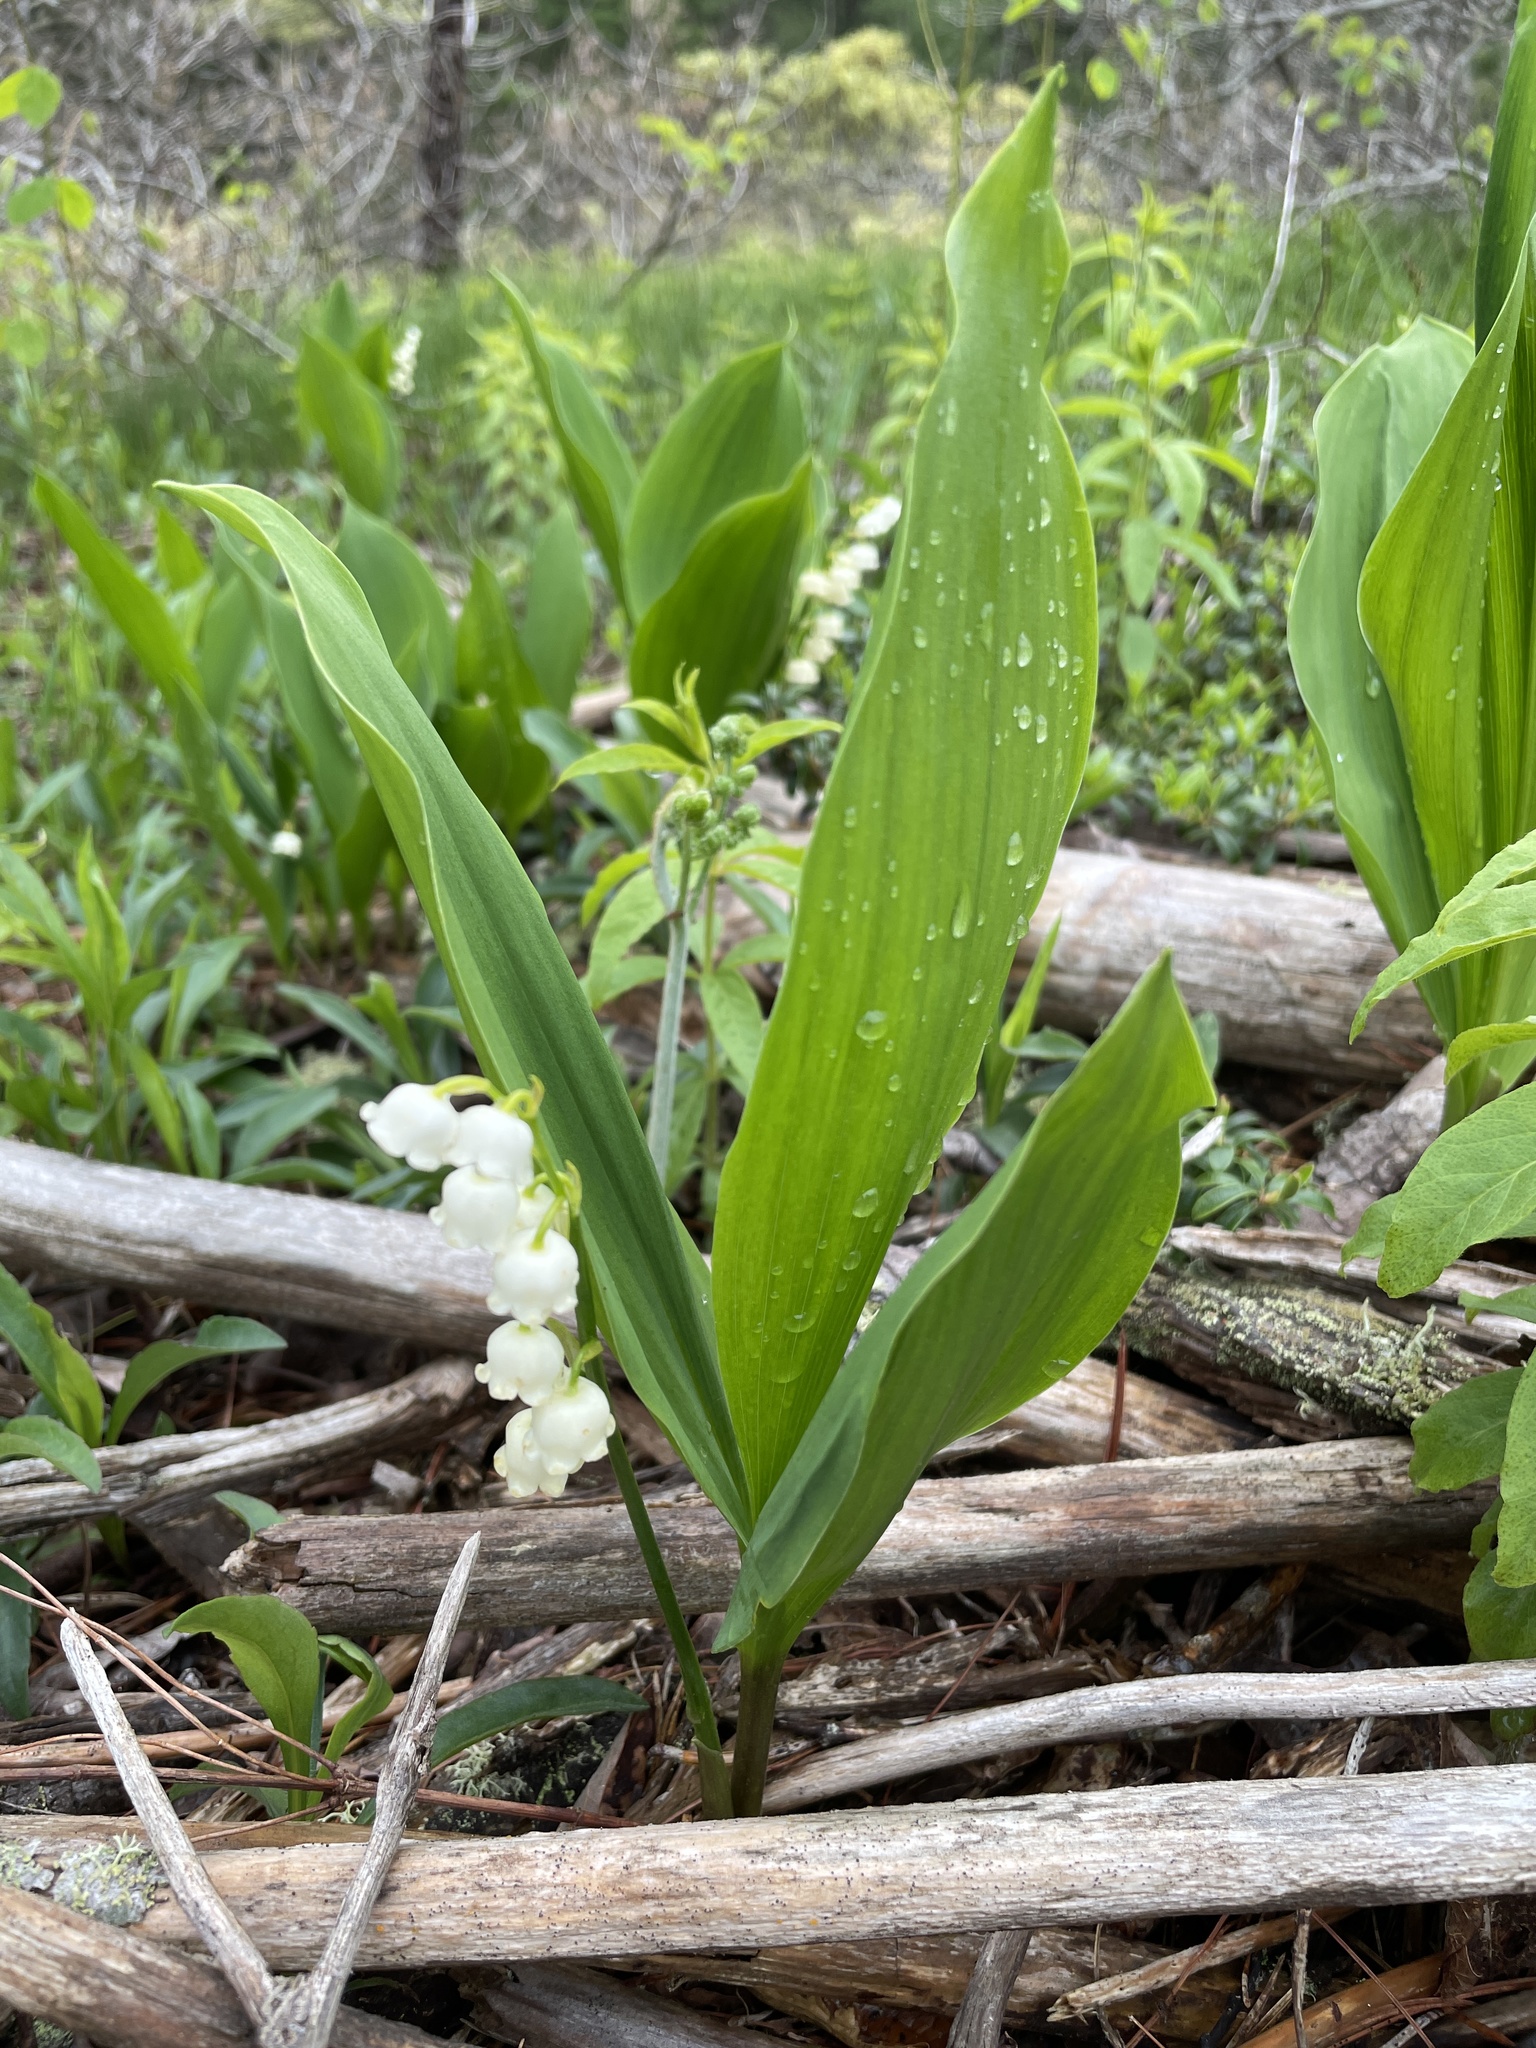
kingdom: Plantae
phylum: Tracheophyta
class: Liliopsida
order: Asparagales
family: Asparagaceae
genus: Convallaria
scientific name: Convallaria majalis
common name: Lily-of-the-valley
